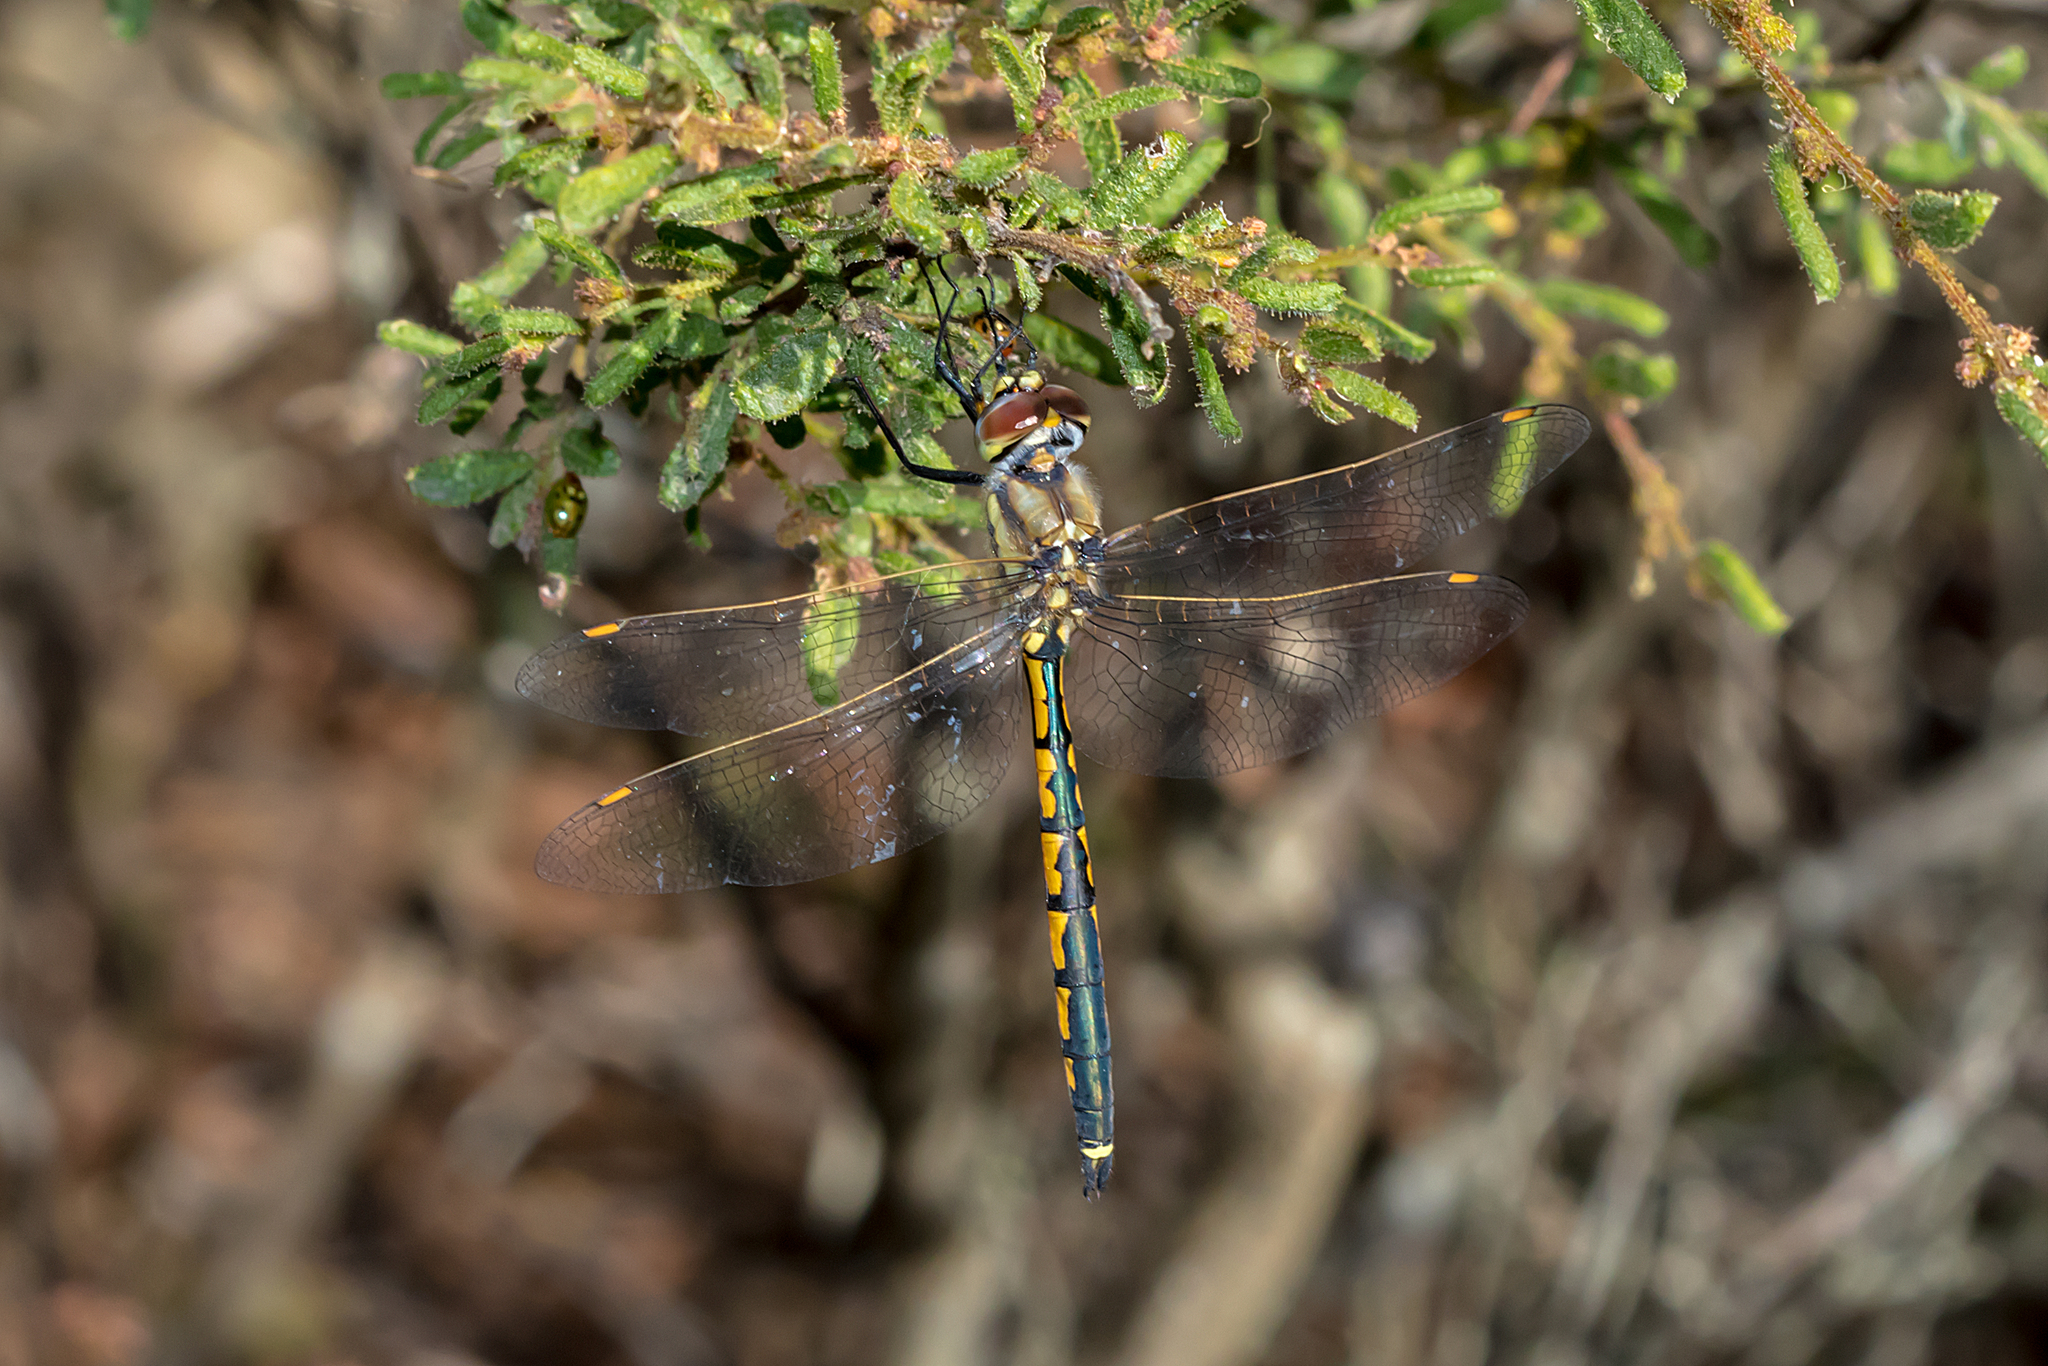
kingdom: Animalia
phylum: Arthropoda
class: Insecta
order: Odonata
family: Corduliidae
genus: Hemicordulia
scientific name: Hemicordulia tau
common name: Tau emerald
